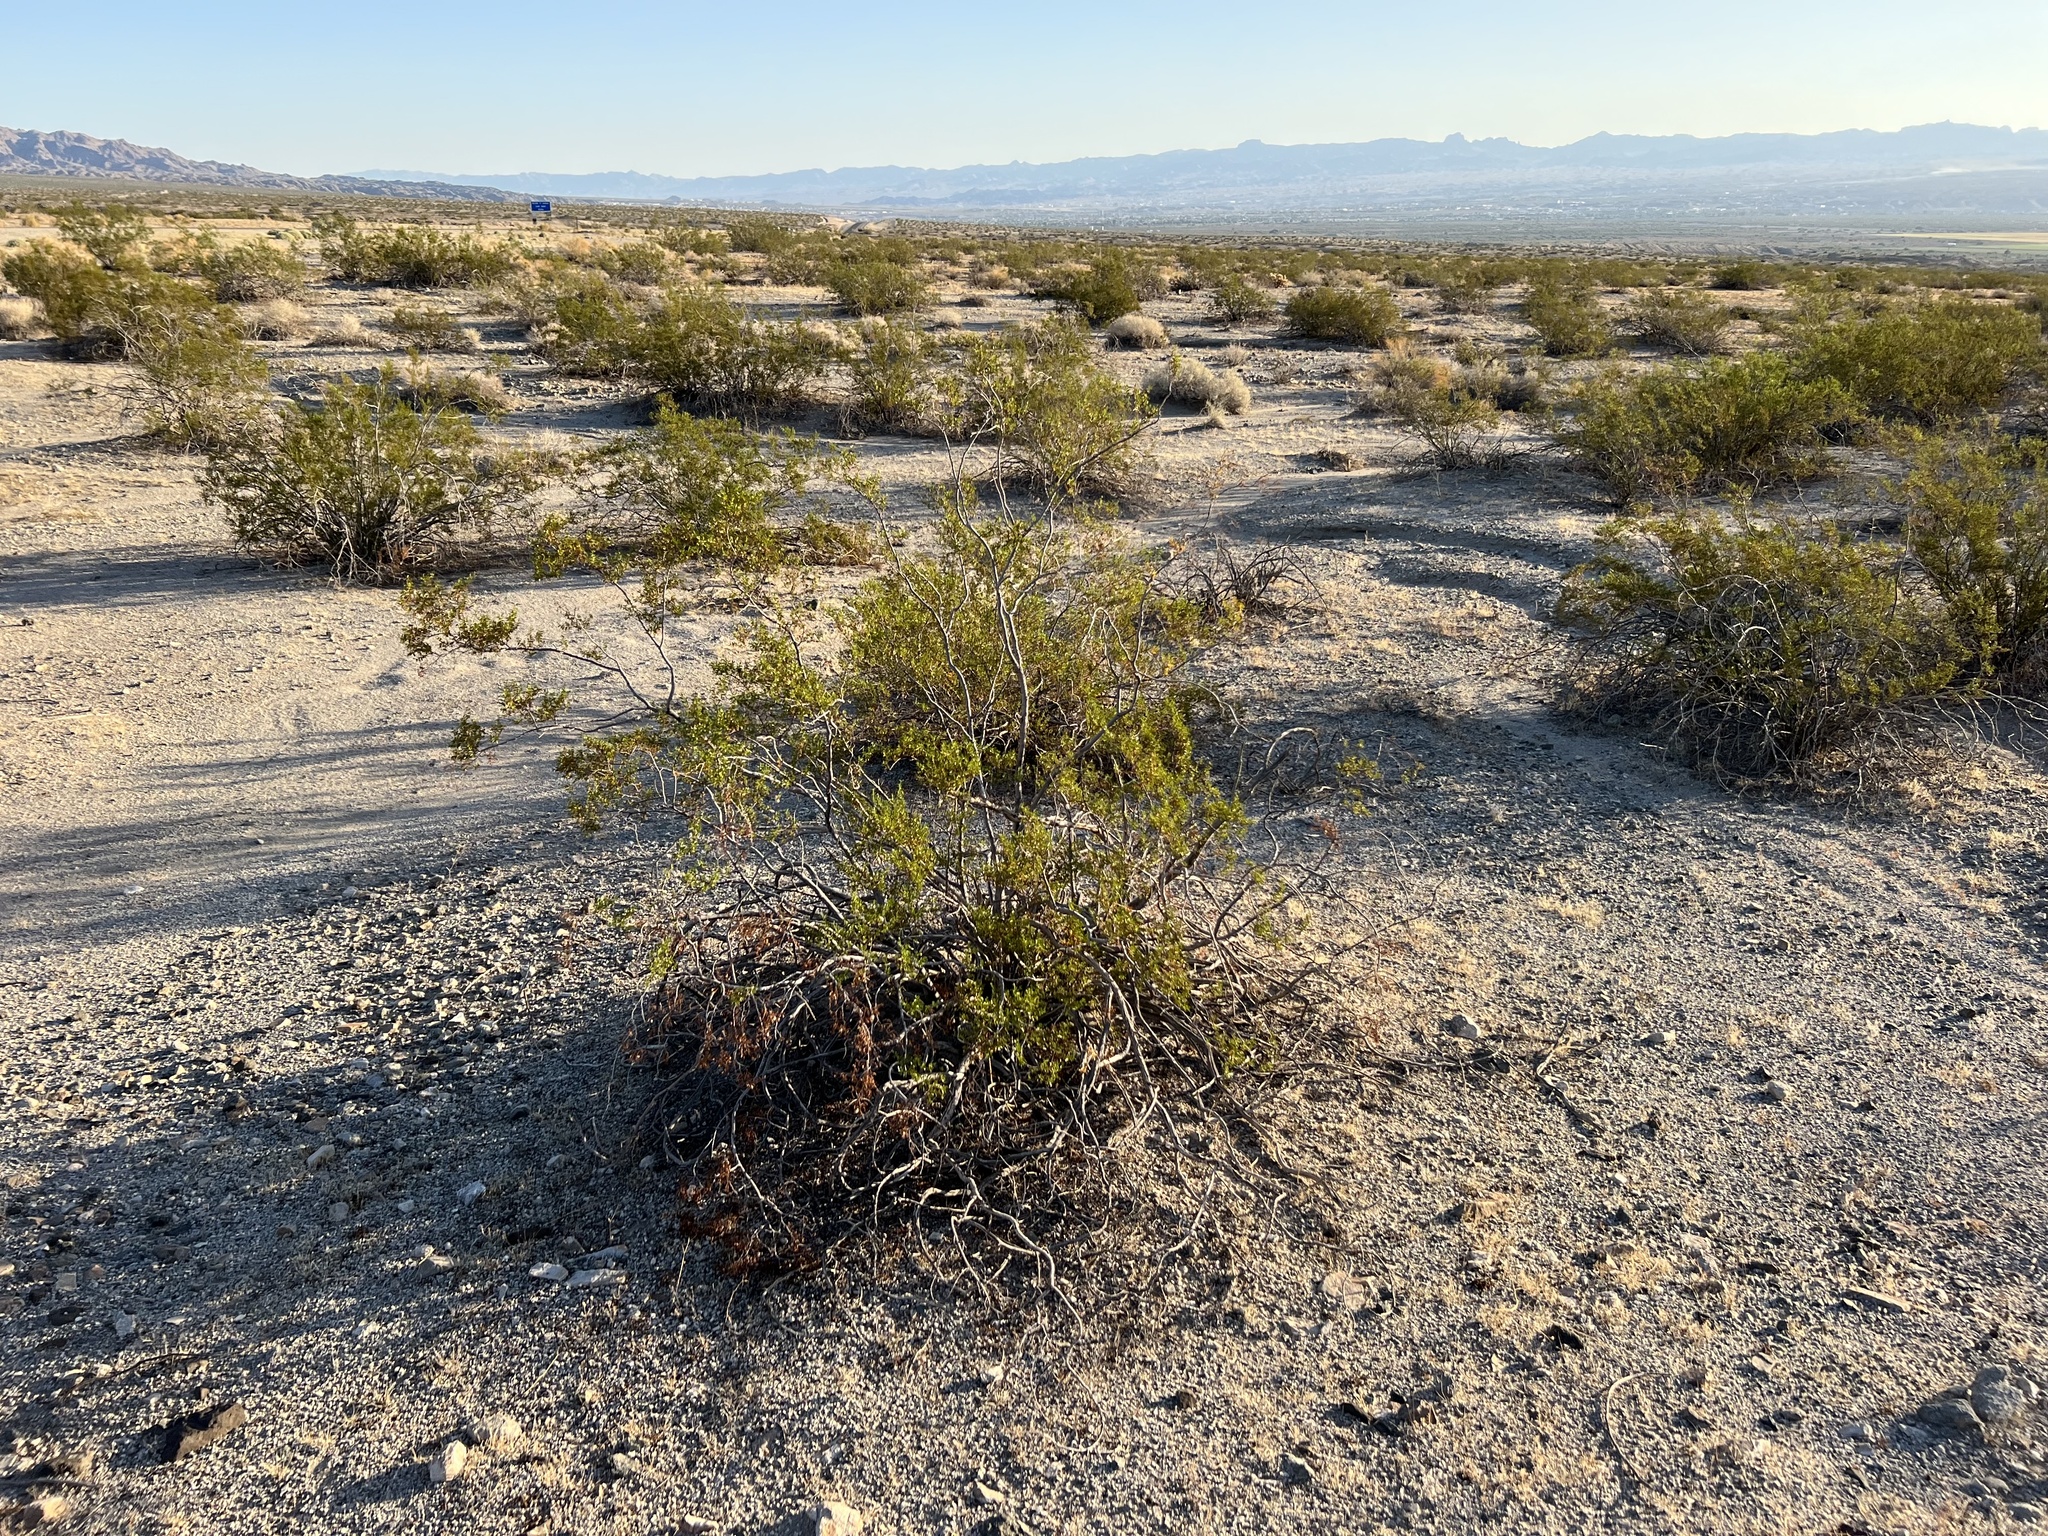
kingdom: Plantae
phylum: Tracheophyta
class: Magnoliopsida
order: Zygophyllales
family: Zygophyllaceae
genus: Larrea
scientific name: Larrea tridentata
